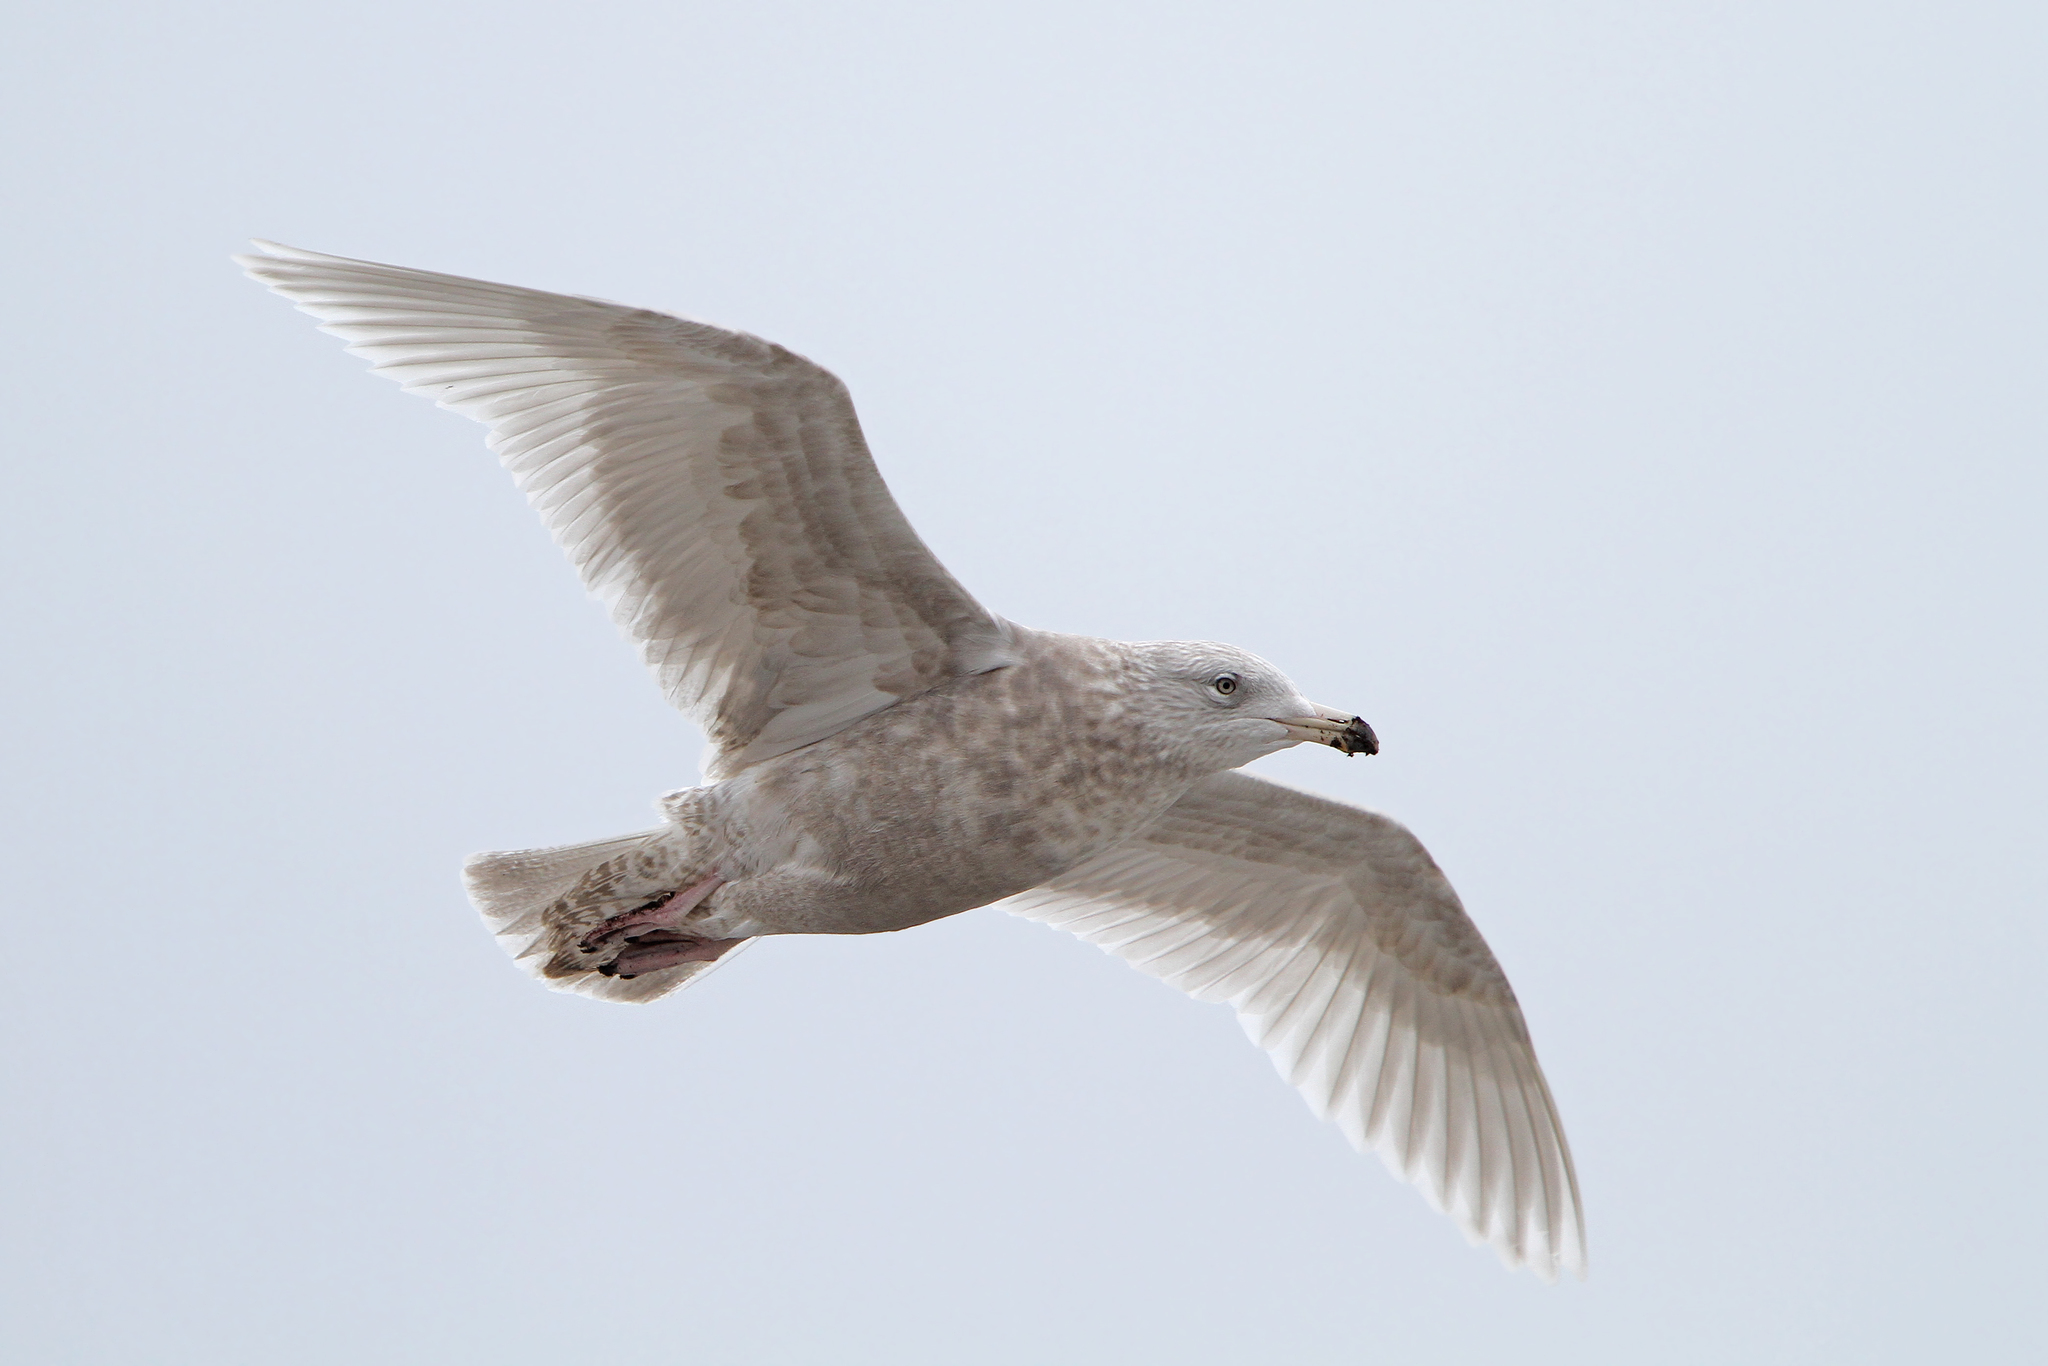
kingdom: Animalia
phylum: Chordata
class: Aves
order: Charadriiformes
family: Laridae
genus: Larus
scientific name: Larus hyperboreus
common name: Glaucous gull
